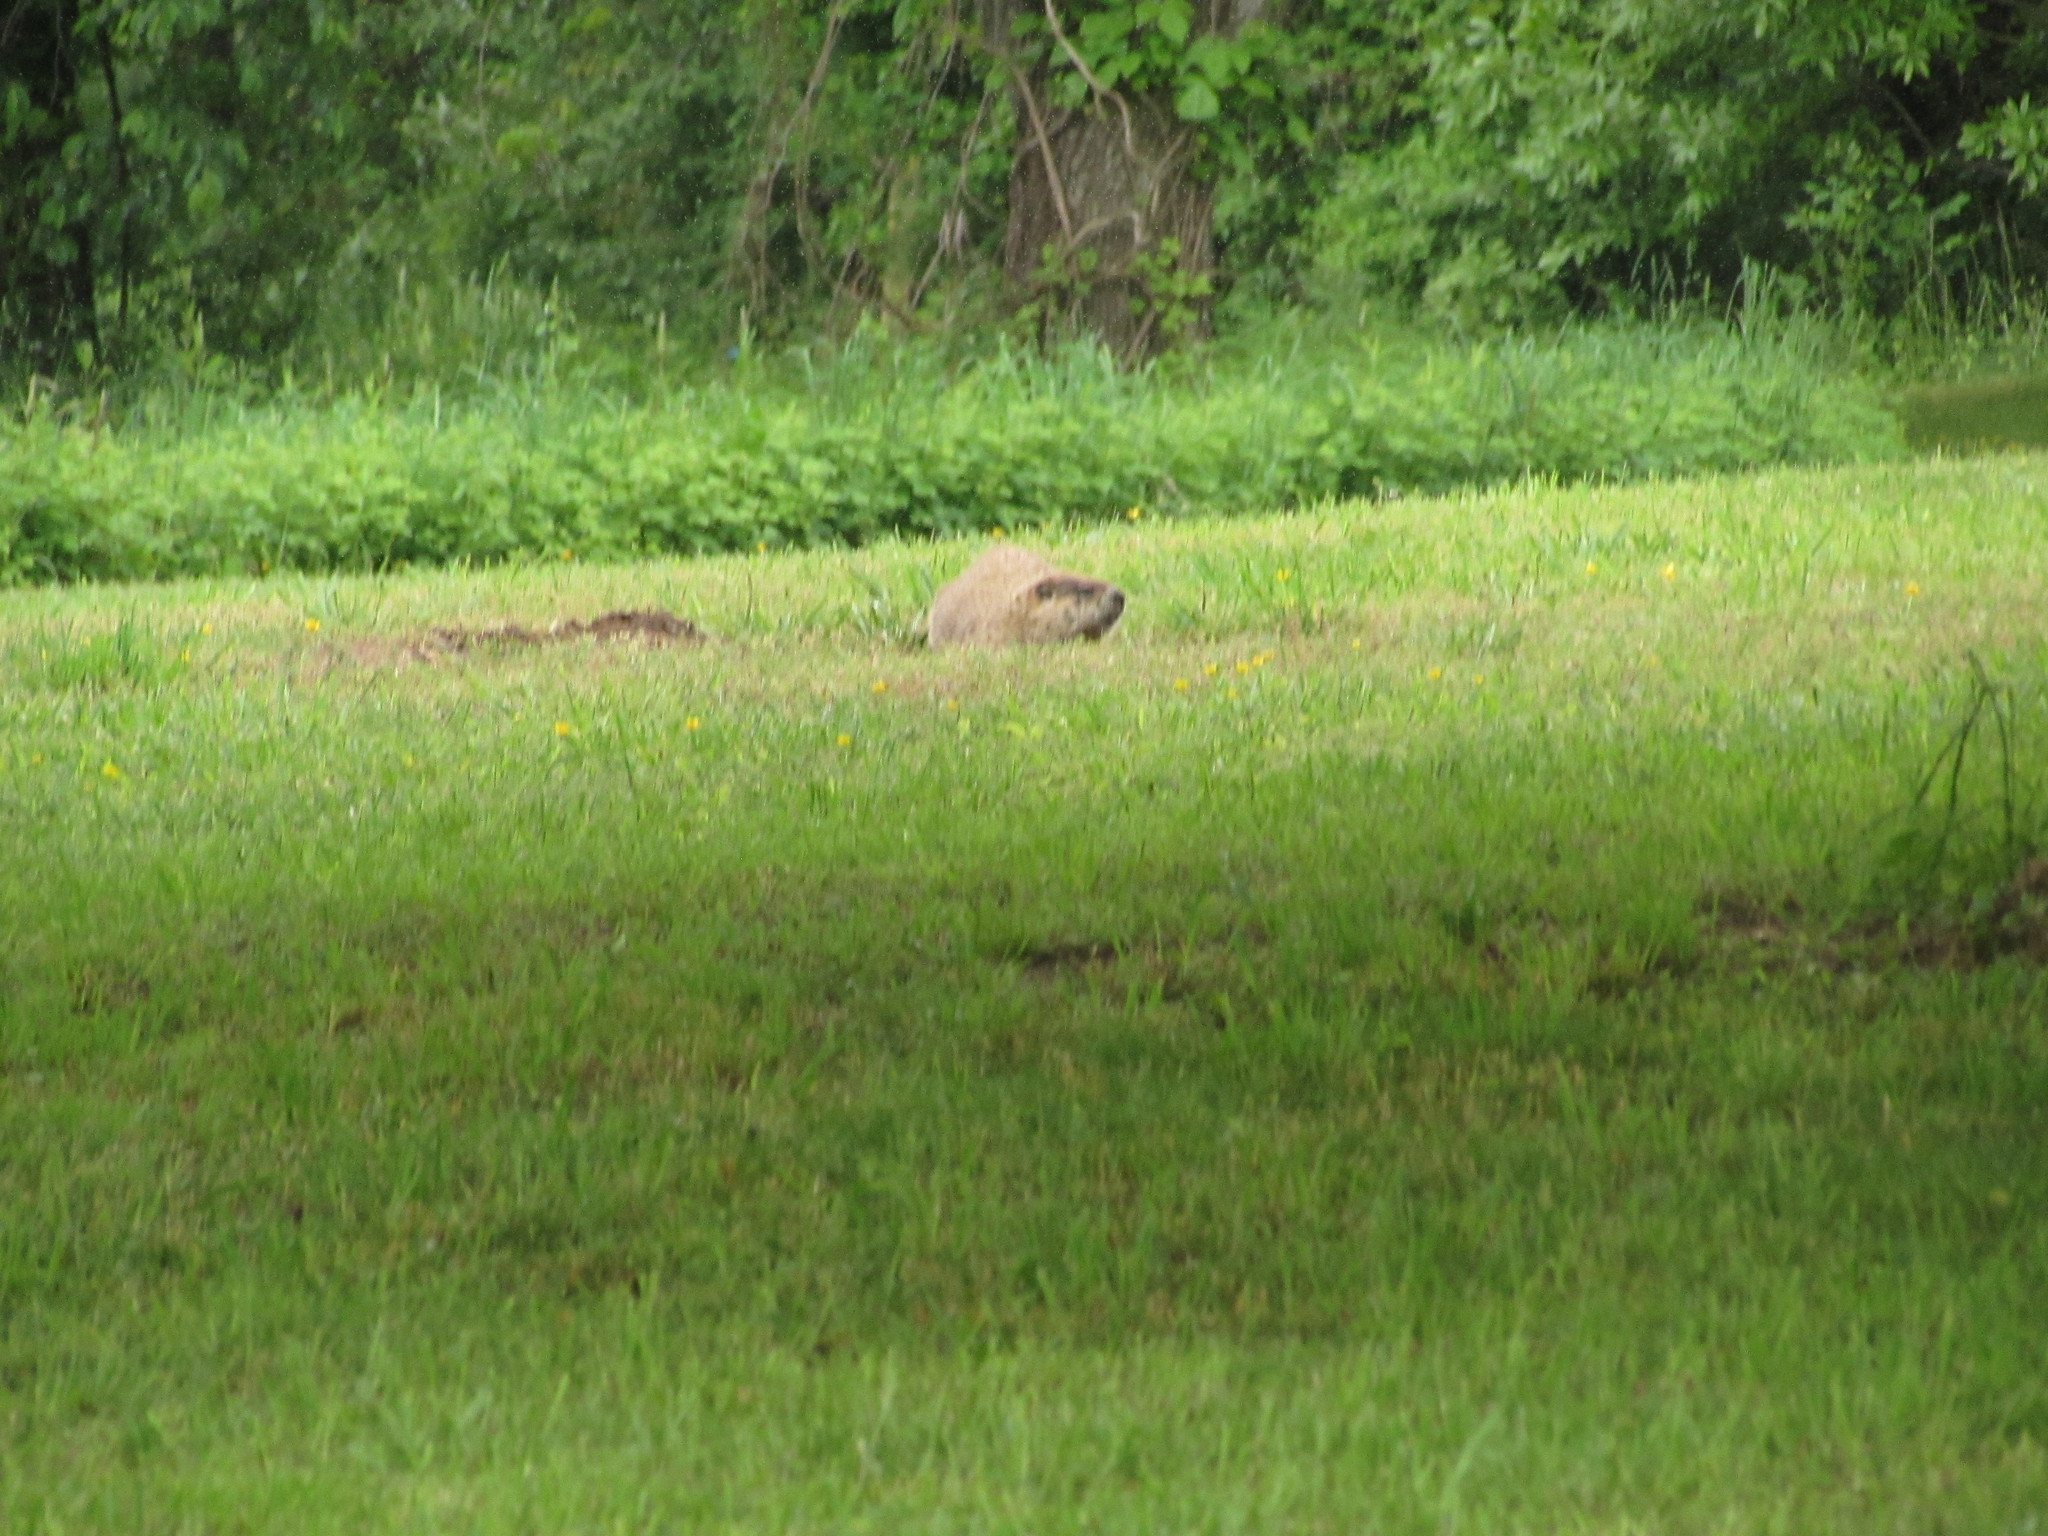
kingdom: Animalia
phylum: Chordata
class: Mammalia
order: Rodentia
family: Sciuridae
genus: Marmota
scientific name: Marmota monax
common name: Groundhog
